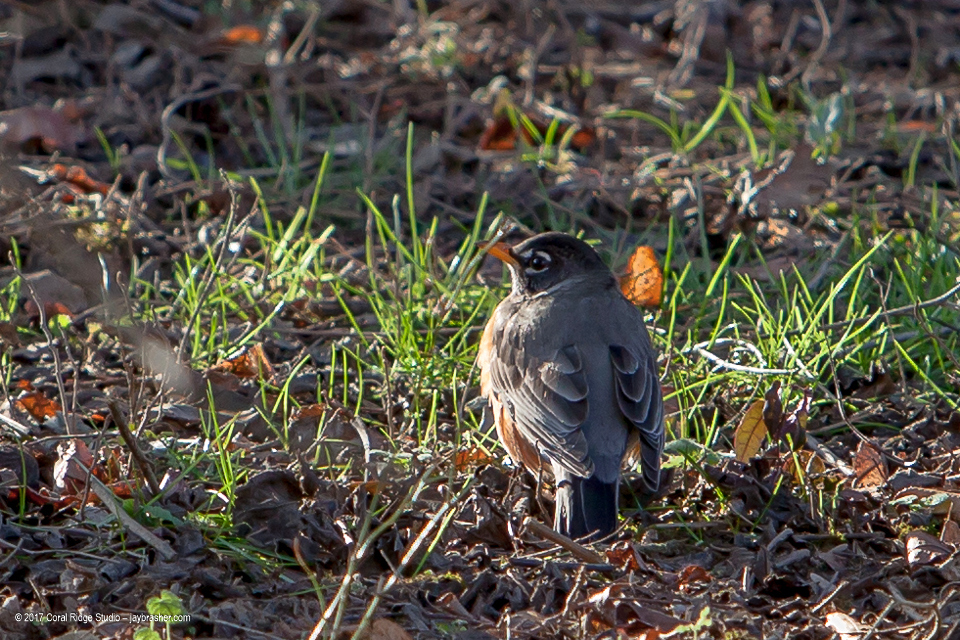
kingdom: Animalia
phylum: Chordata
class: Aves
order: Passeriformes
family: Turdidae
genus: Turdus
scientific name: Turdus migratorius
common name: American robin
